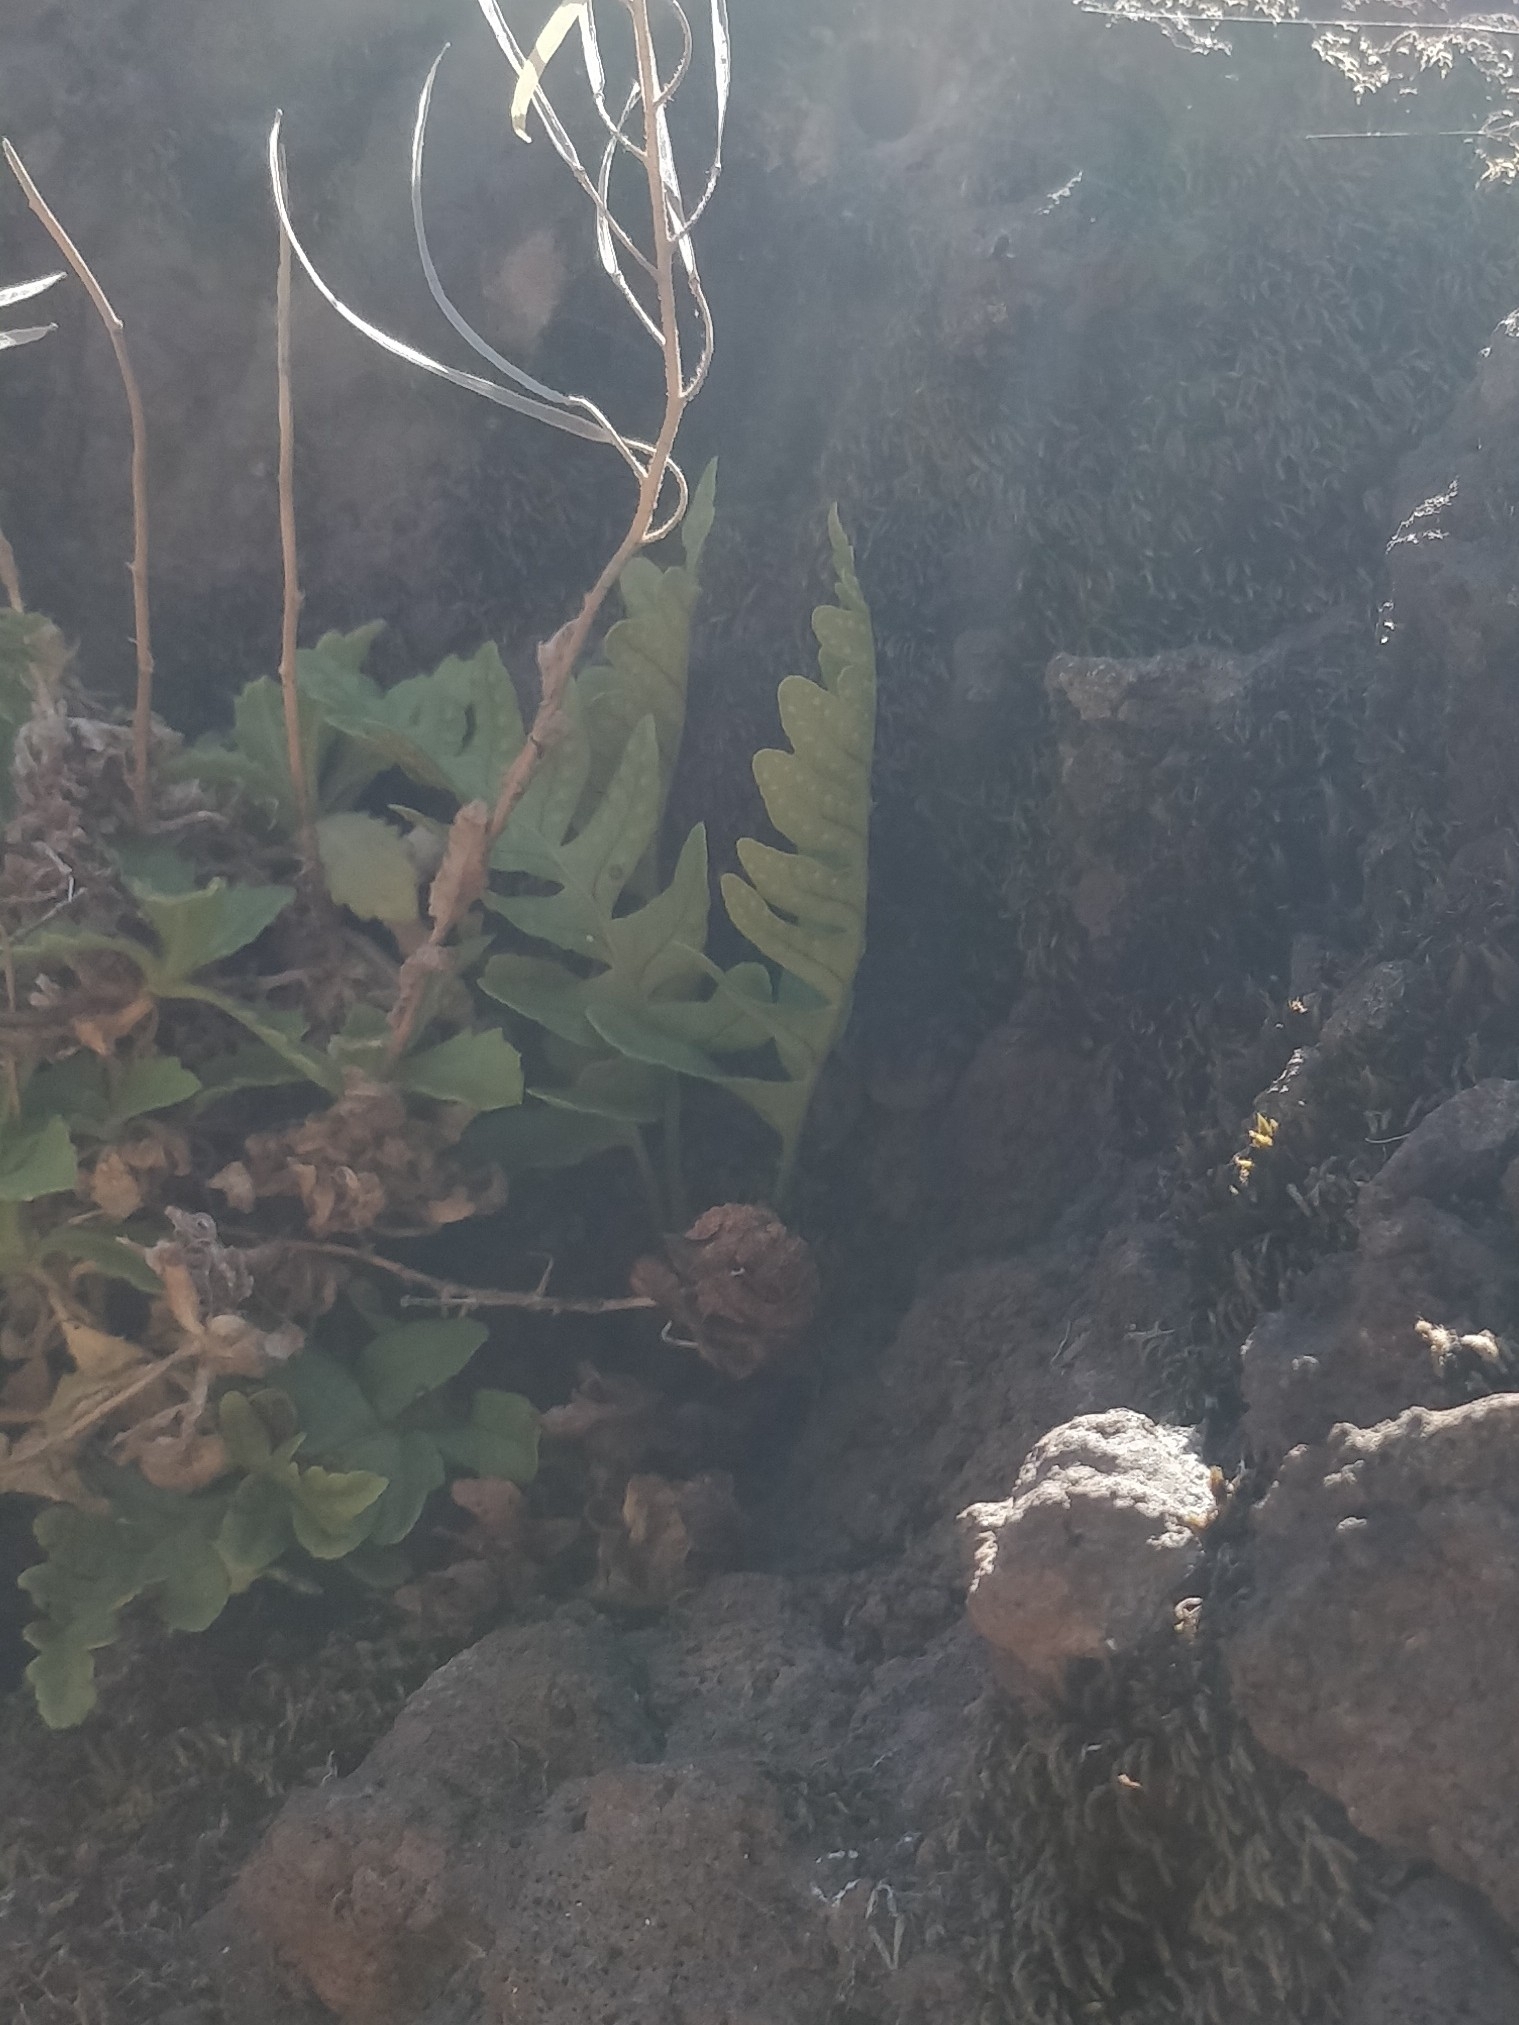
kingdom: Plantae
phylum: Tracheophyta
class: Polypodiopsida
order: Polypodiales
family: Polypodiaceae
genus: Polypodium
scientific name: Polypodium macaronesicum
